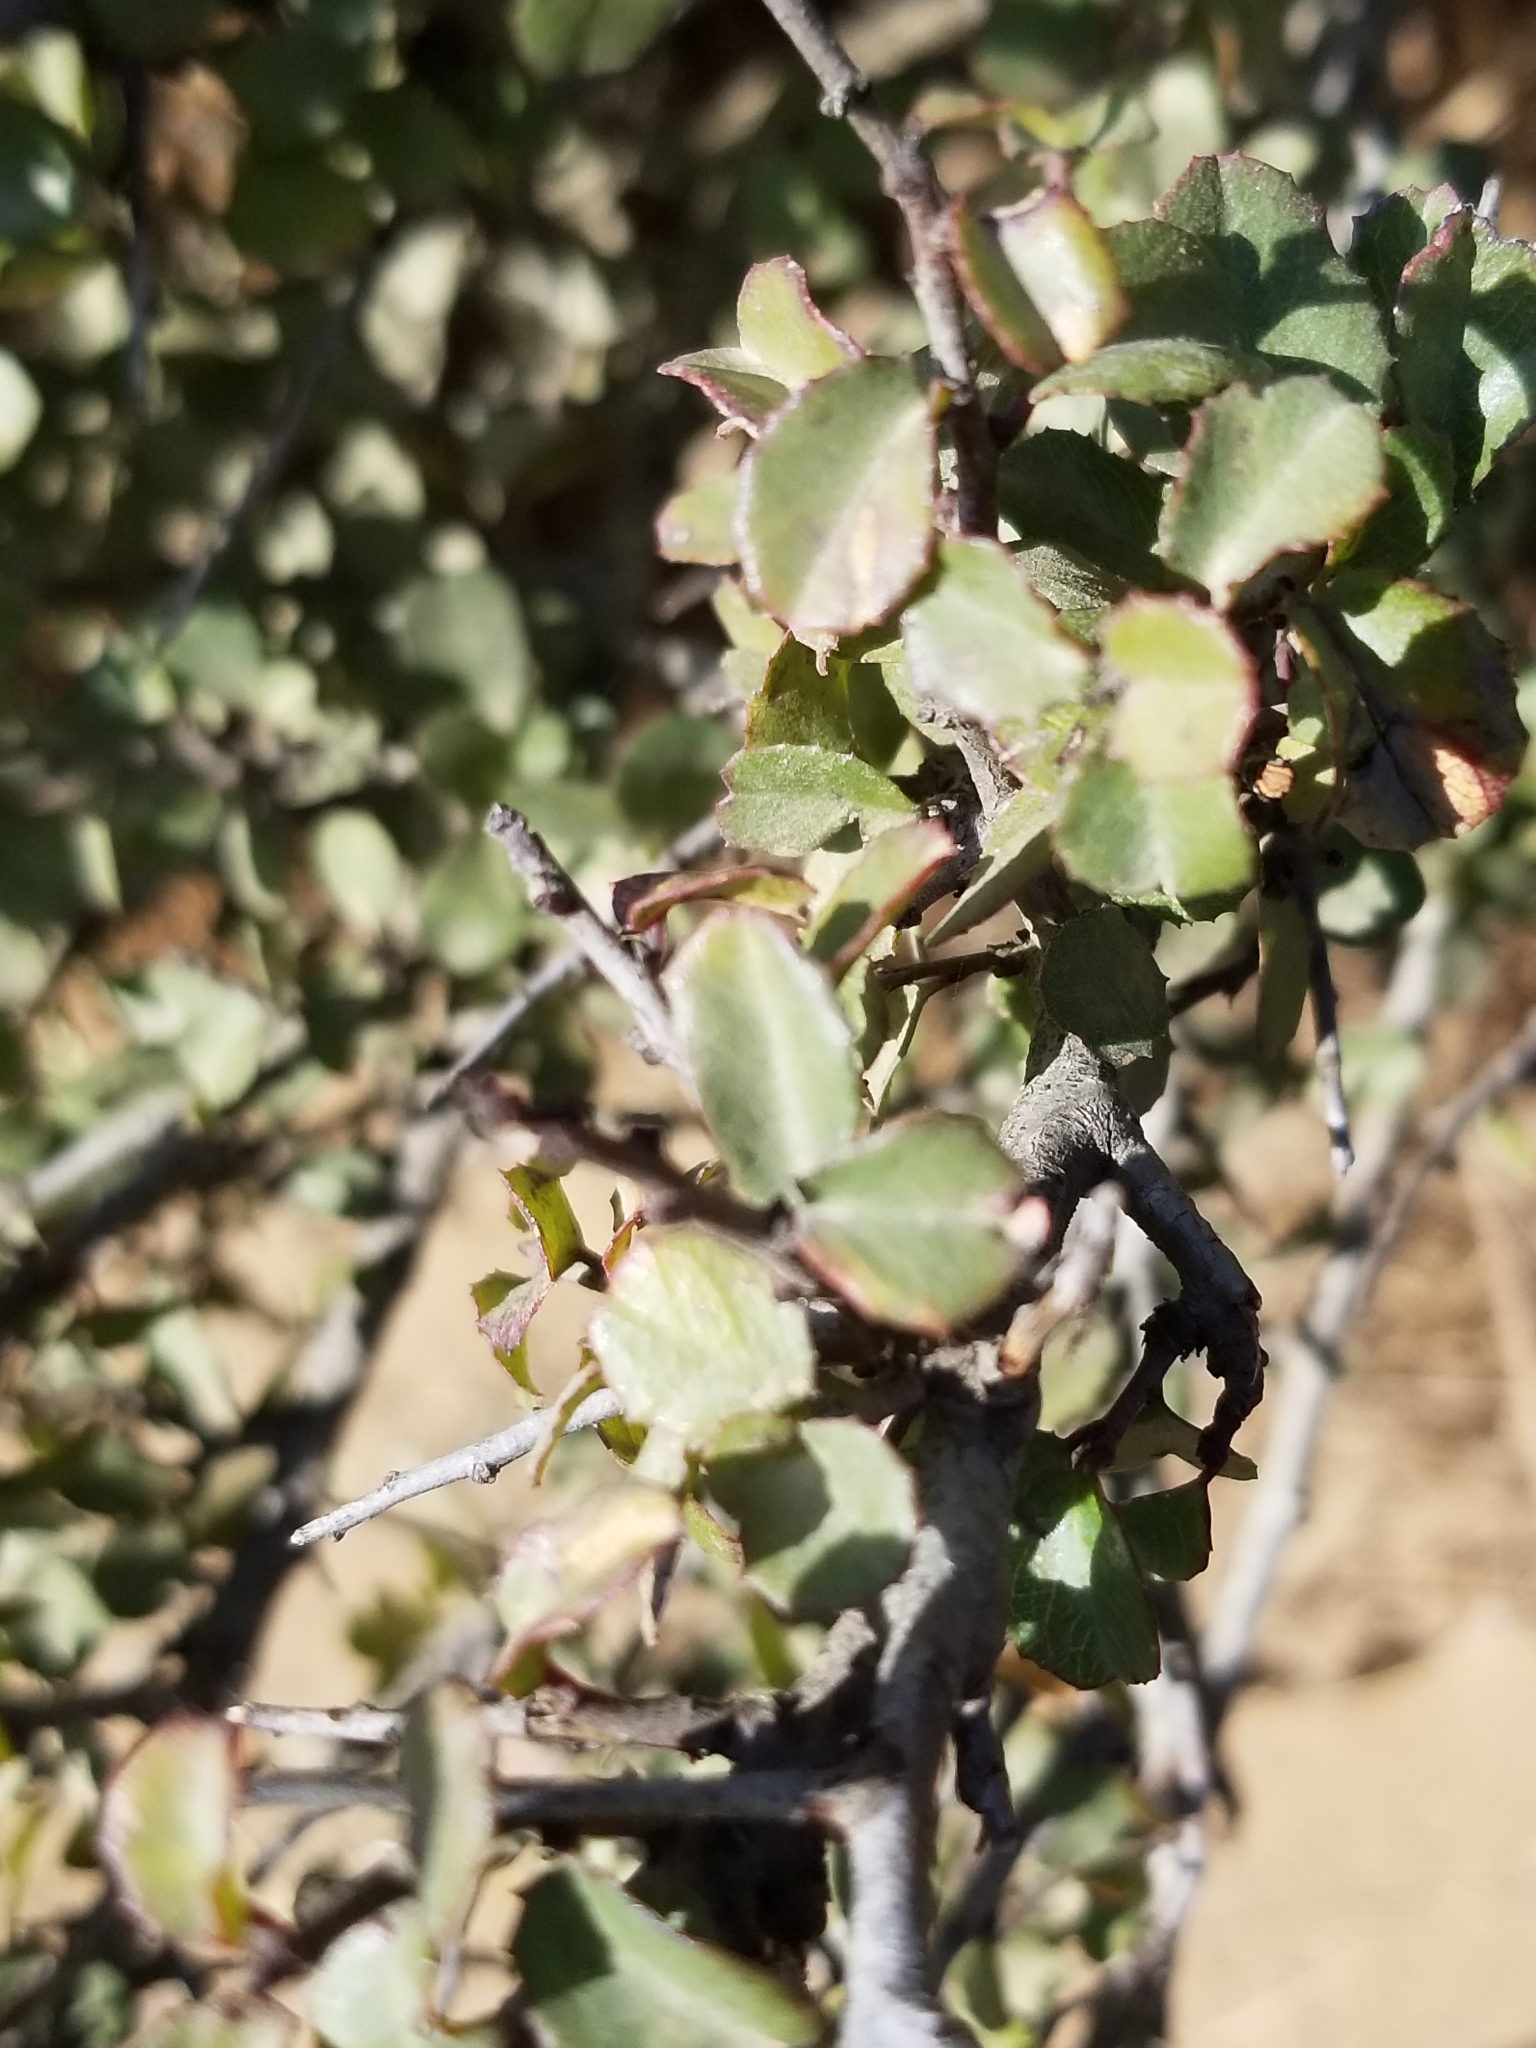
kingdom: Plantae
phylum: Tracheophyta
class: Magnoliopsida
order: Rosales
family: Rhamnaceae
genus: Endotropis
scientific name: Endotropis crocea
